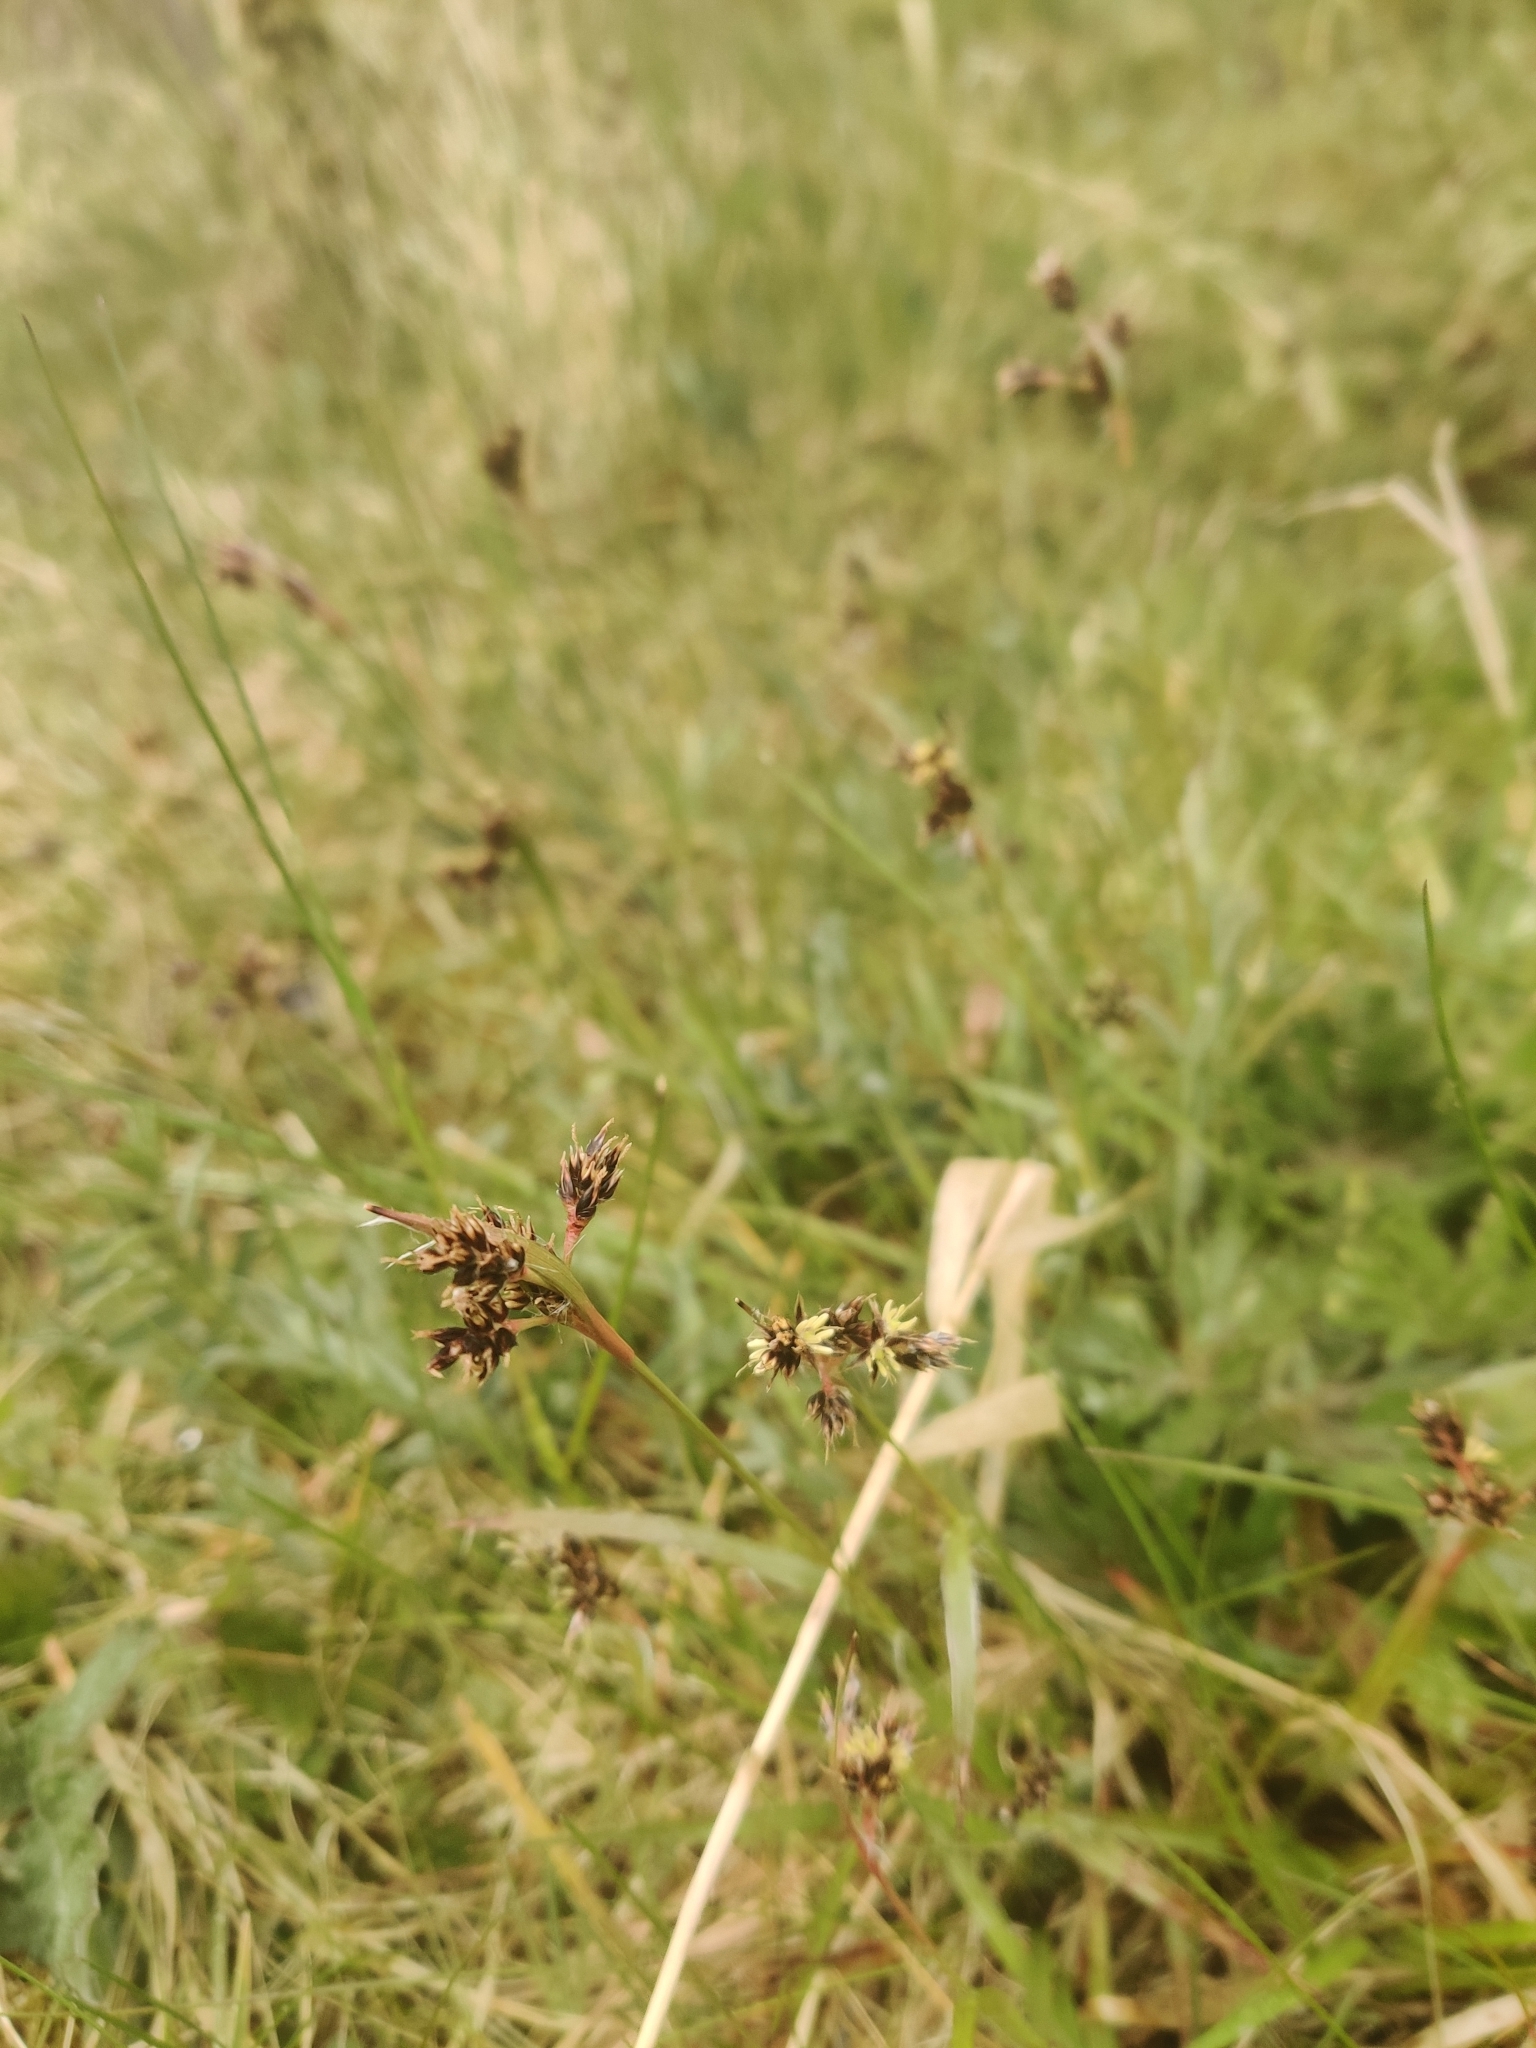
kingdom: Plantae
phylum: Tracheophyta
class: Liliopsida
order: Poales
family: Juncaceae
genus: Luzula
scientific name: Luzula campestris
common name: Field wood-rush
